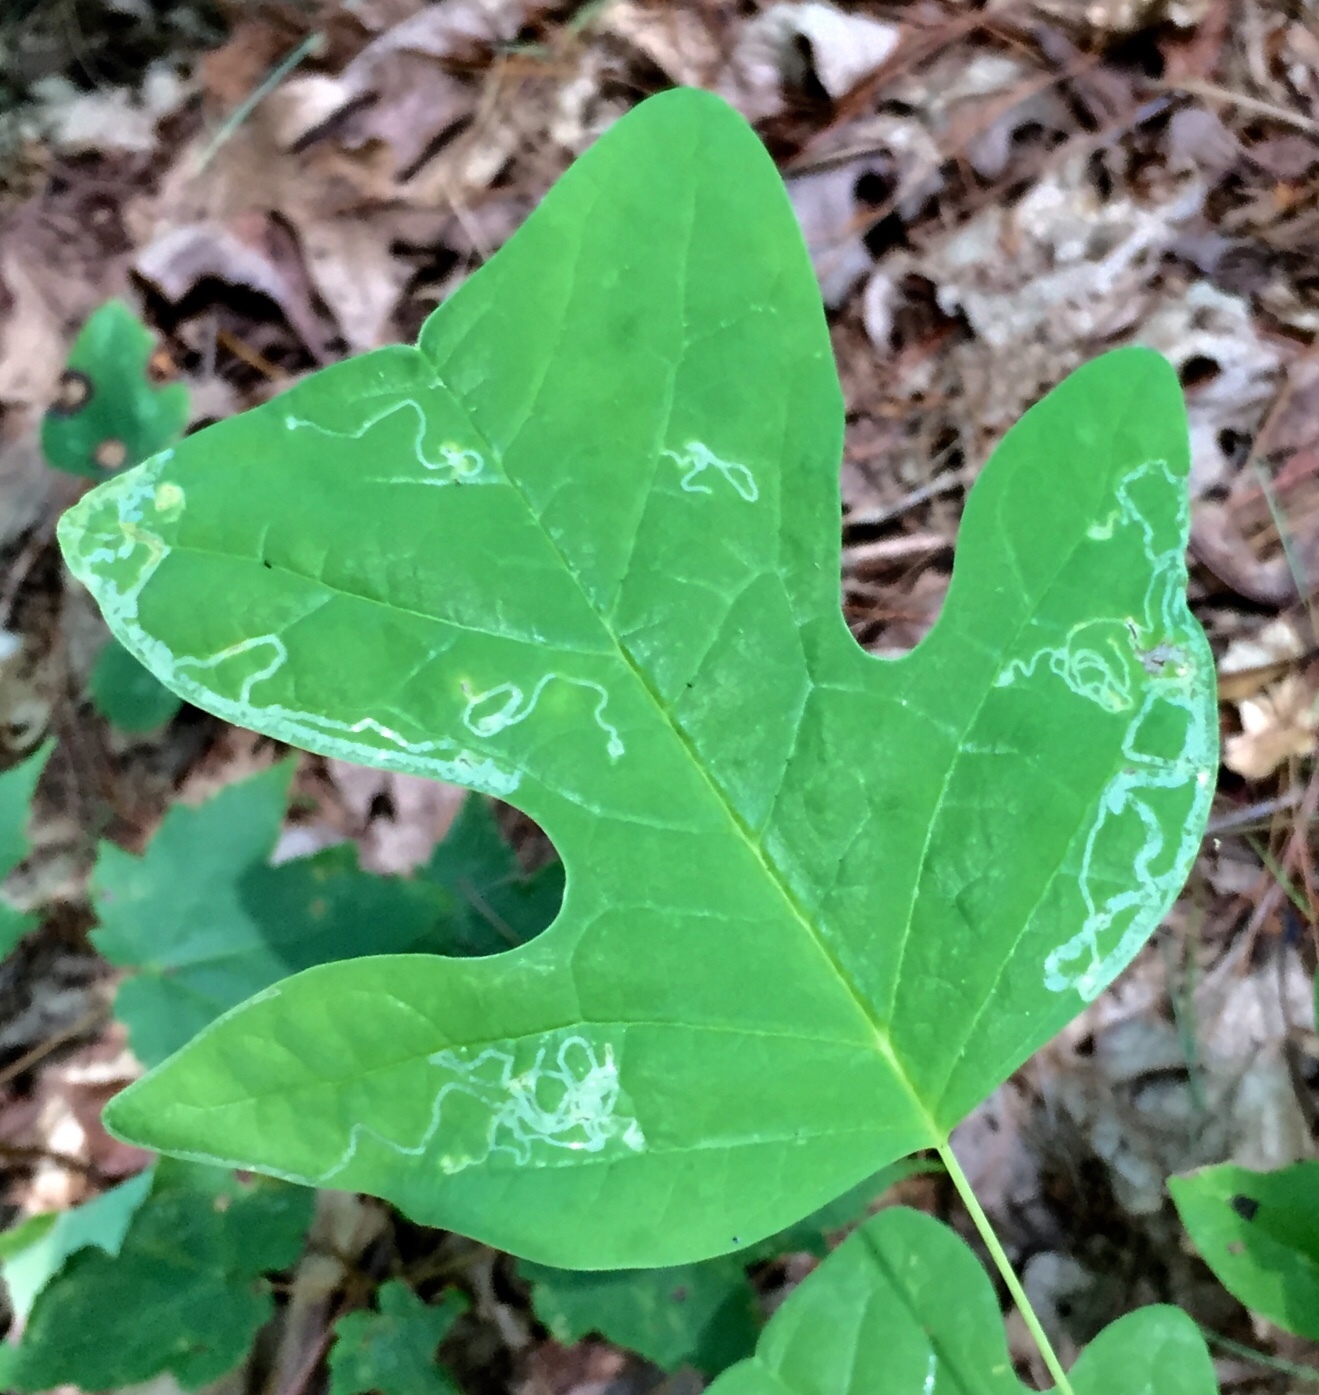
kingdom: Animalia
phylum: Arthropoda
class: Insecta
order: Lepidoptera
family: Gracillariidae
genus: Phyllocnistis
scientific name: Phyllocnistis liriodendronella
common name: Tulip tree leaf miner
